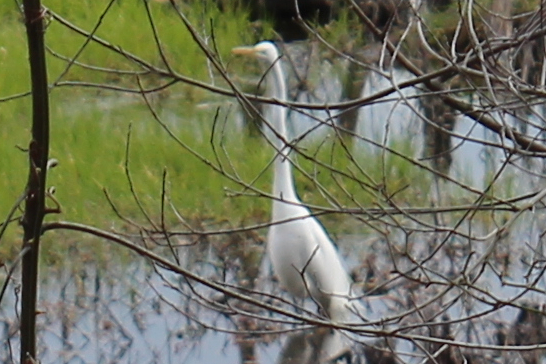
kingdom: Animalia
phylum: Chordata
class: Aves
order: Pelecaniformes
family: Ardeidae
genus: Ardea
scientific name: Ardea alba
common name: Great egret
